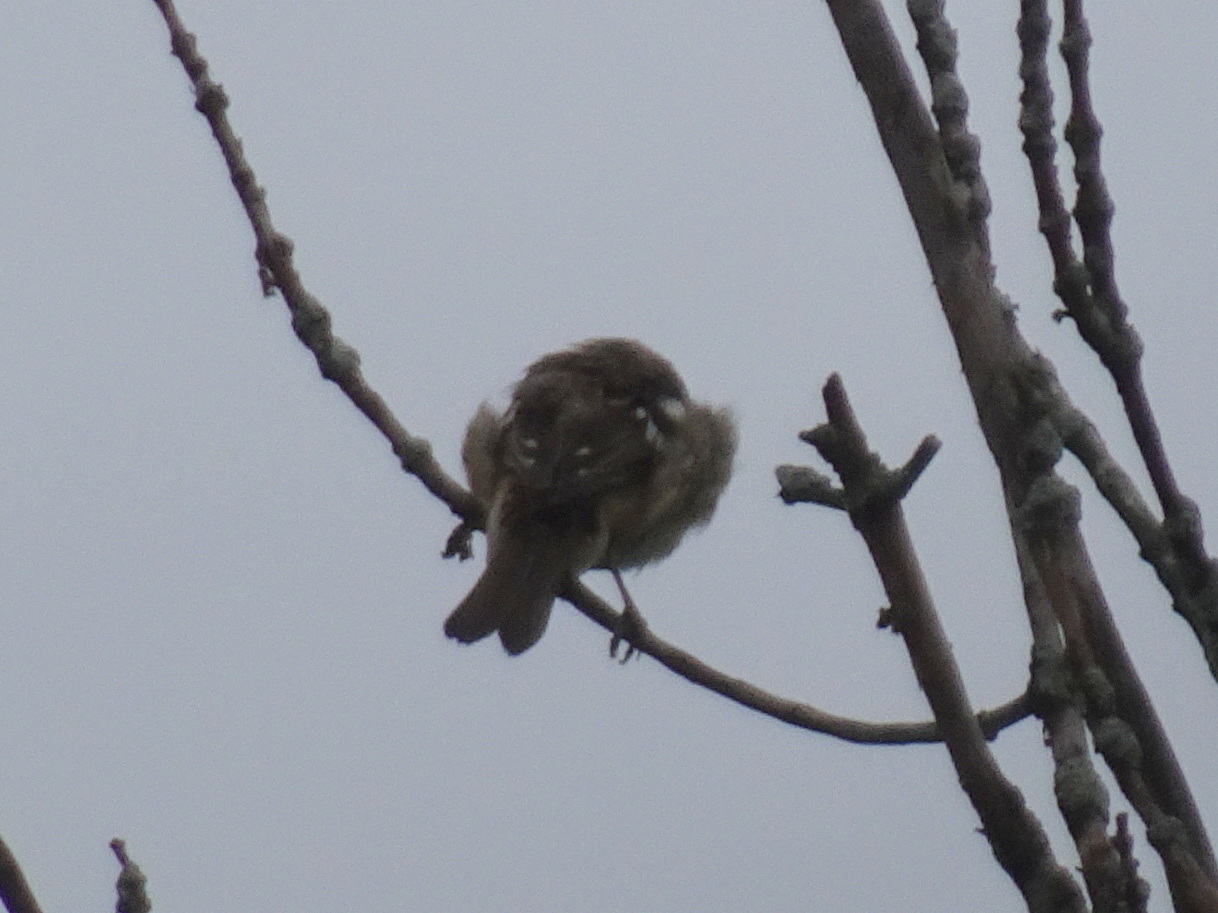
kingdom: Animalia
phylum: Chordata
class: Aves
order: Passeriformes
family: Cardinalidae
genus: Pheucticus
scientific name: Pheucticus ludovicianus
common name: Rose-breasted grosbeak
